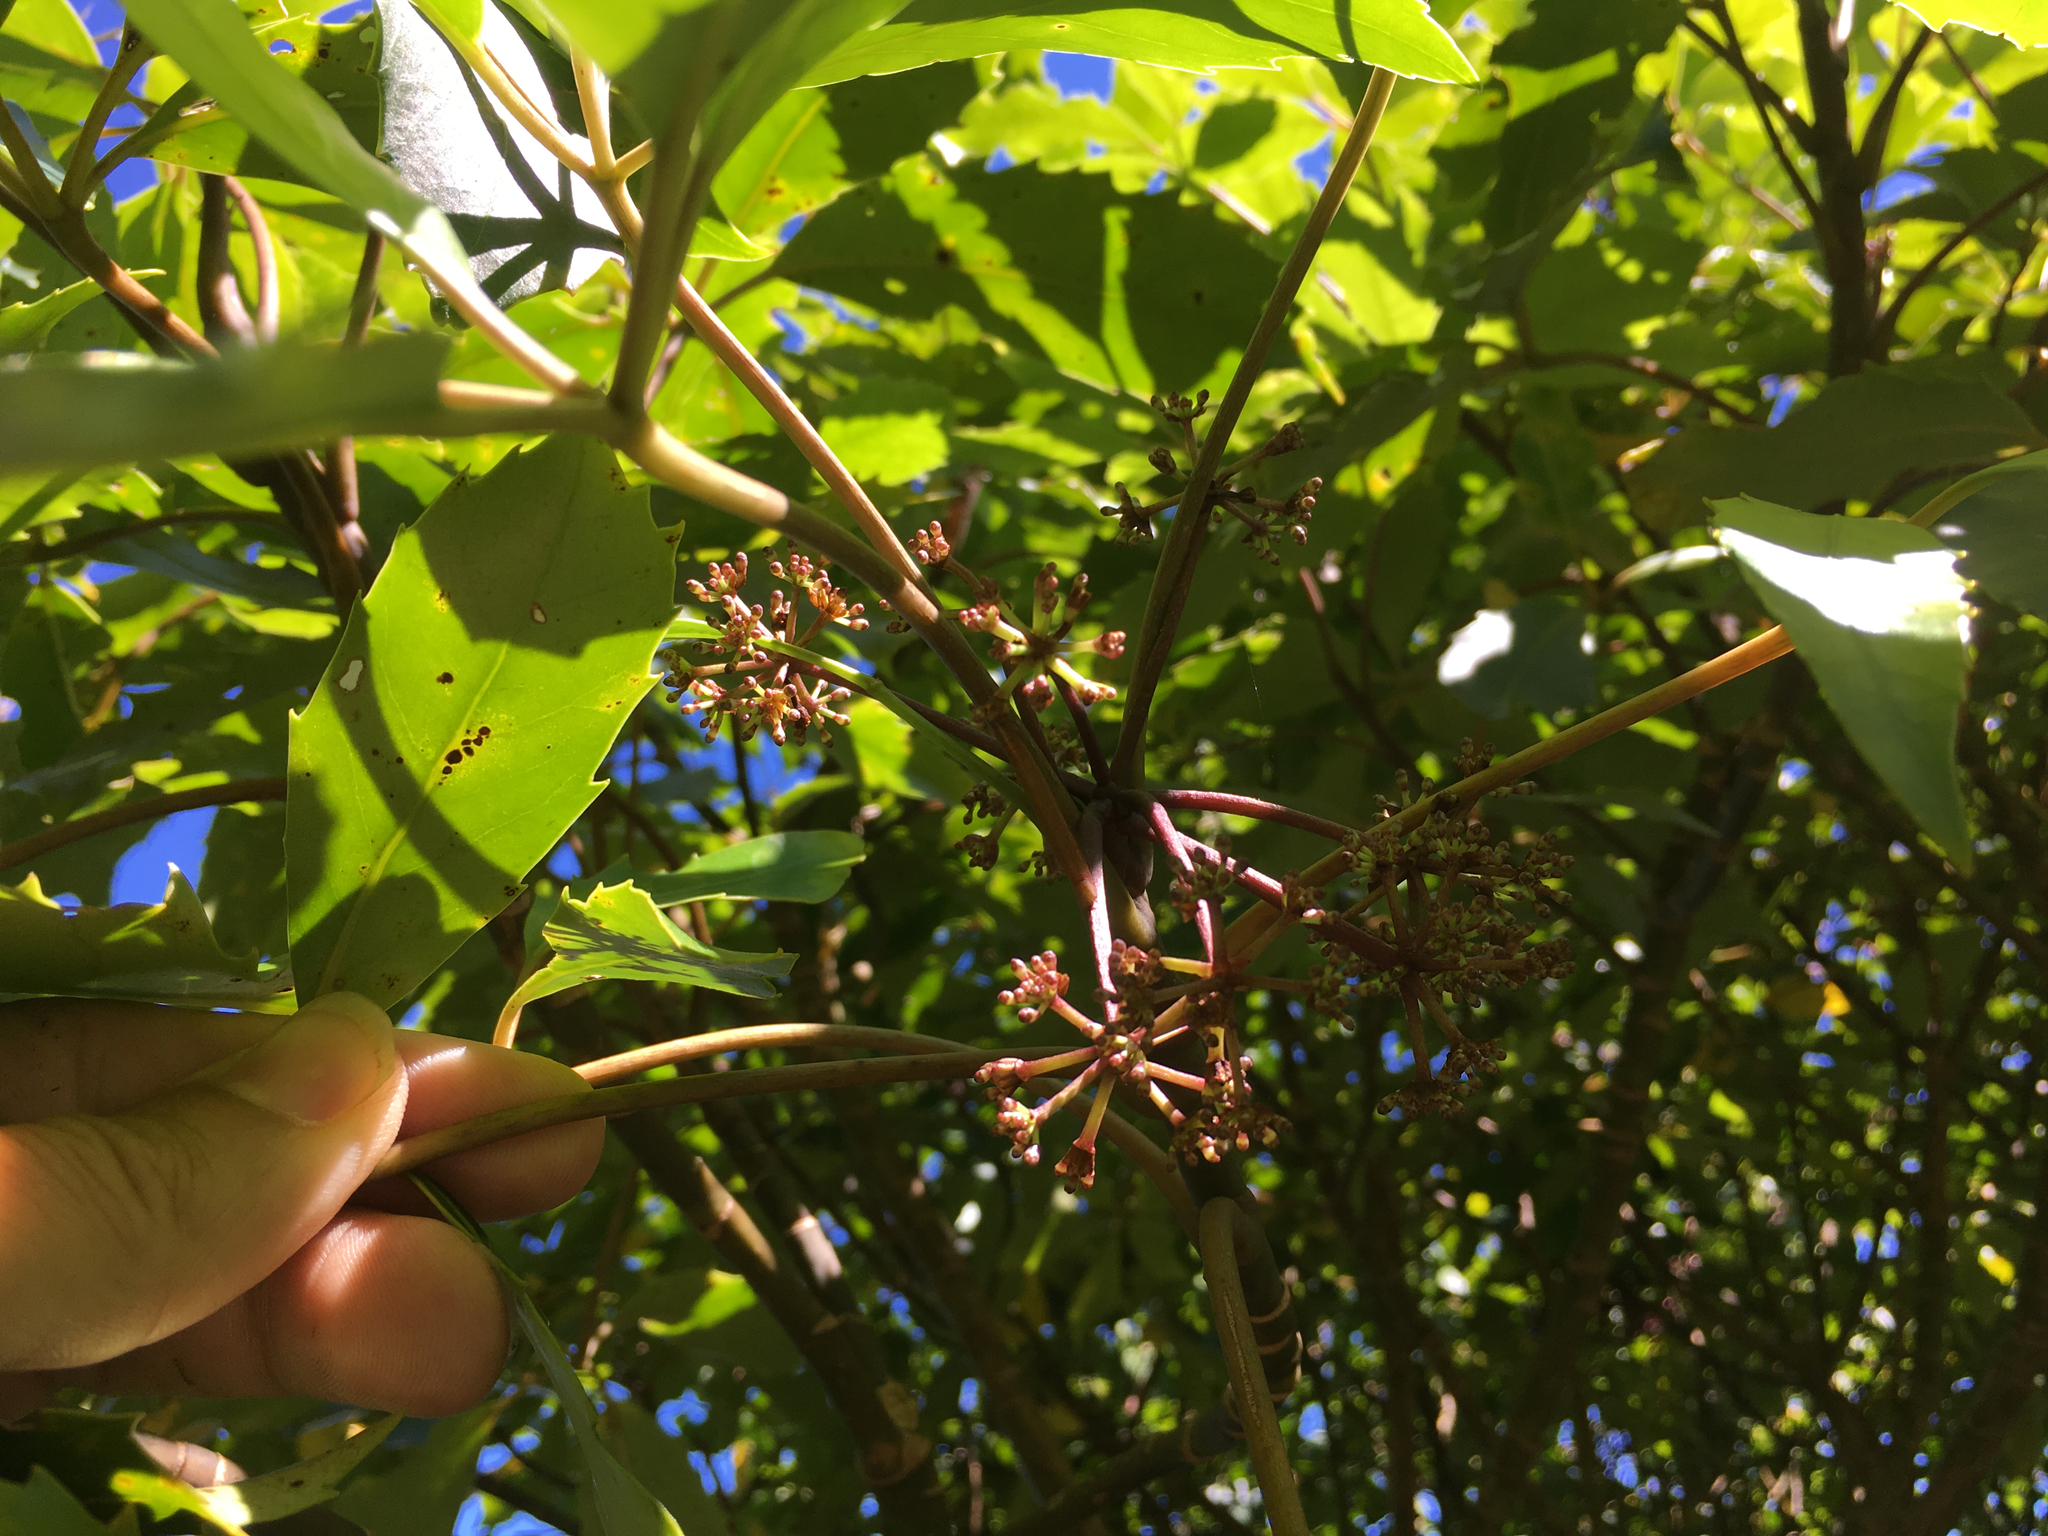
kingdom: Plantae
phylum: Tracheophyta
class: Magnoliopsida
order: Apiales
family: Araliaceae
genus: Neopanax
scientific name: Neopanax arboreus
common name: Five-fingers
